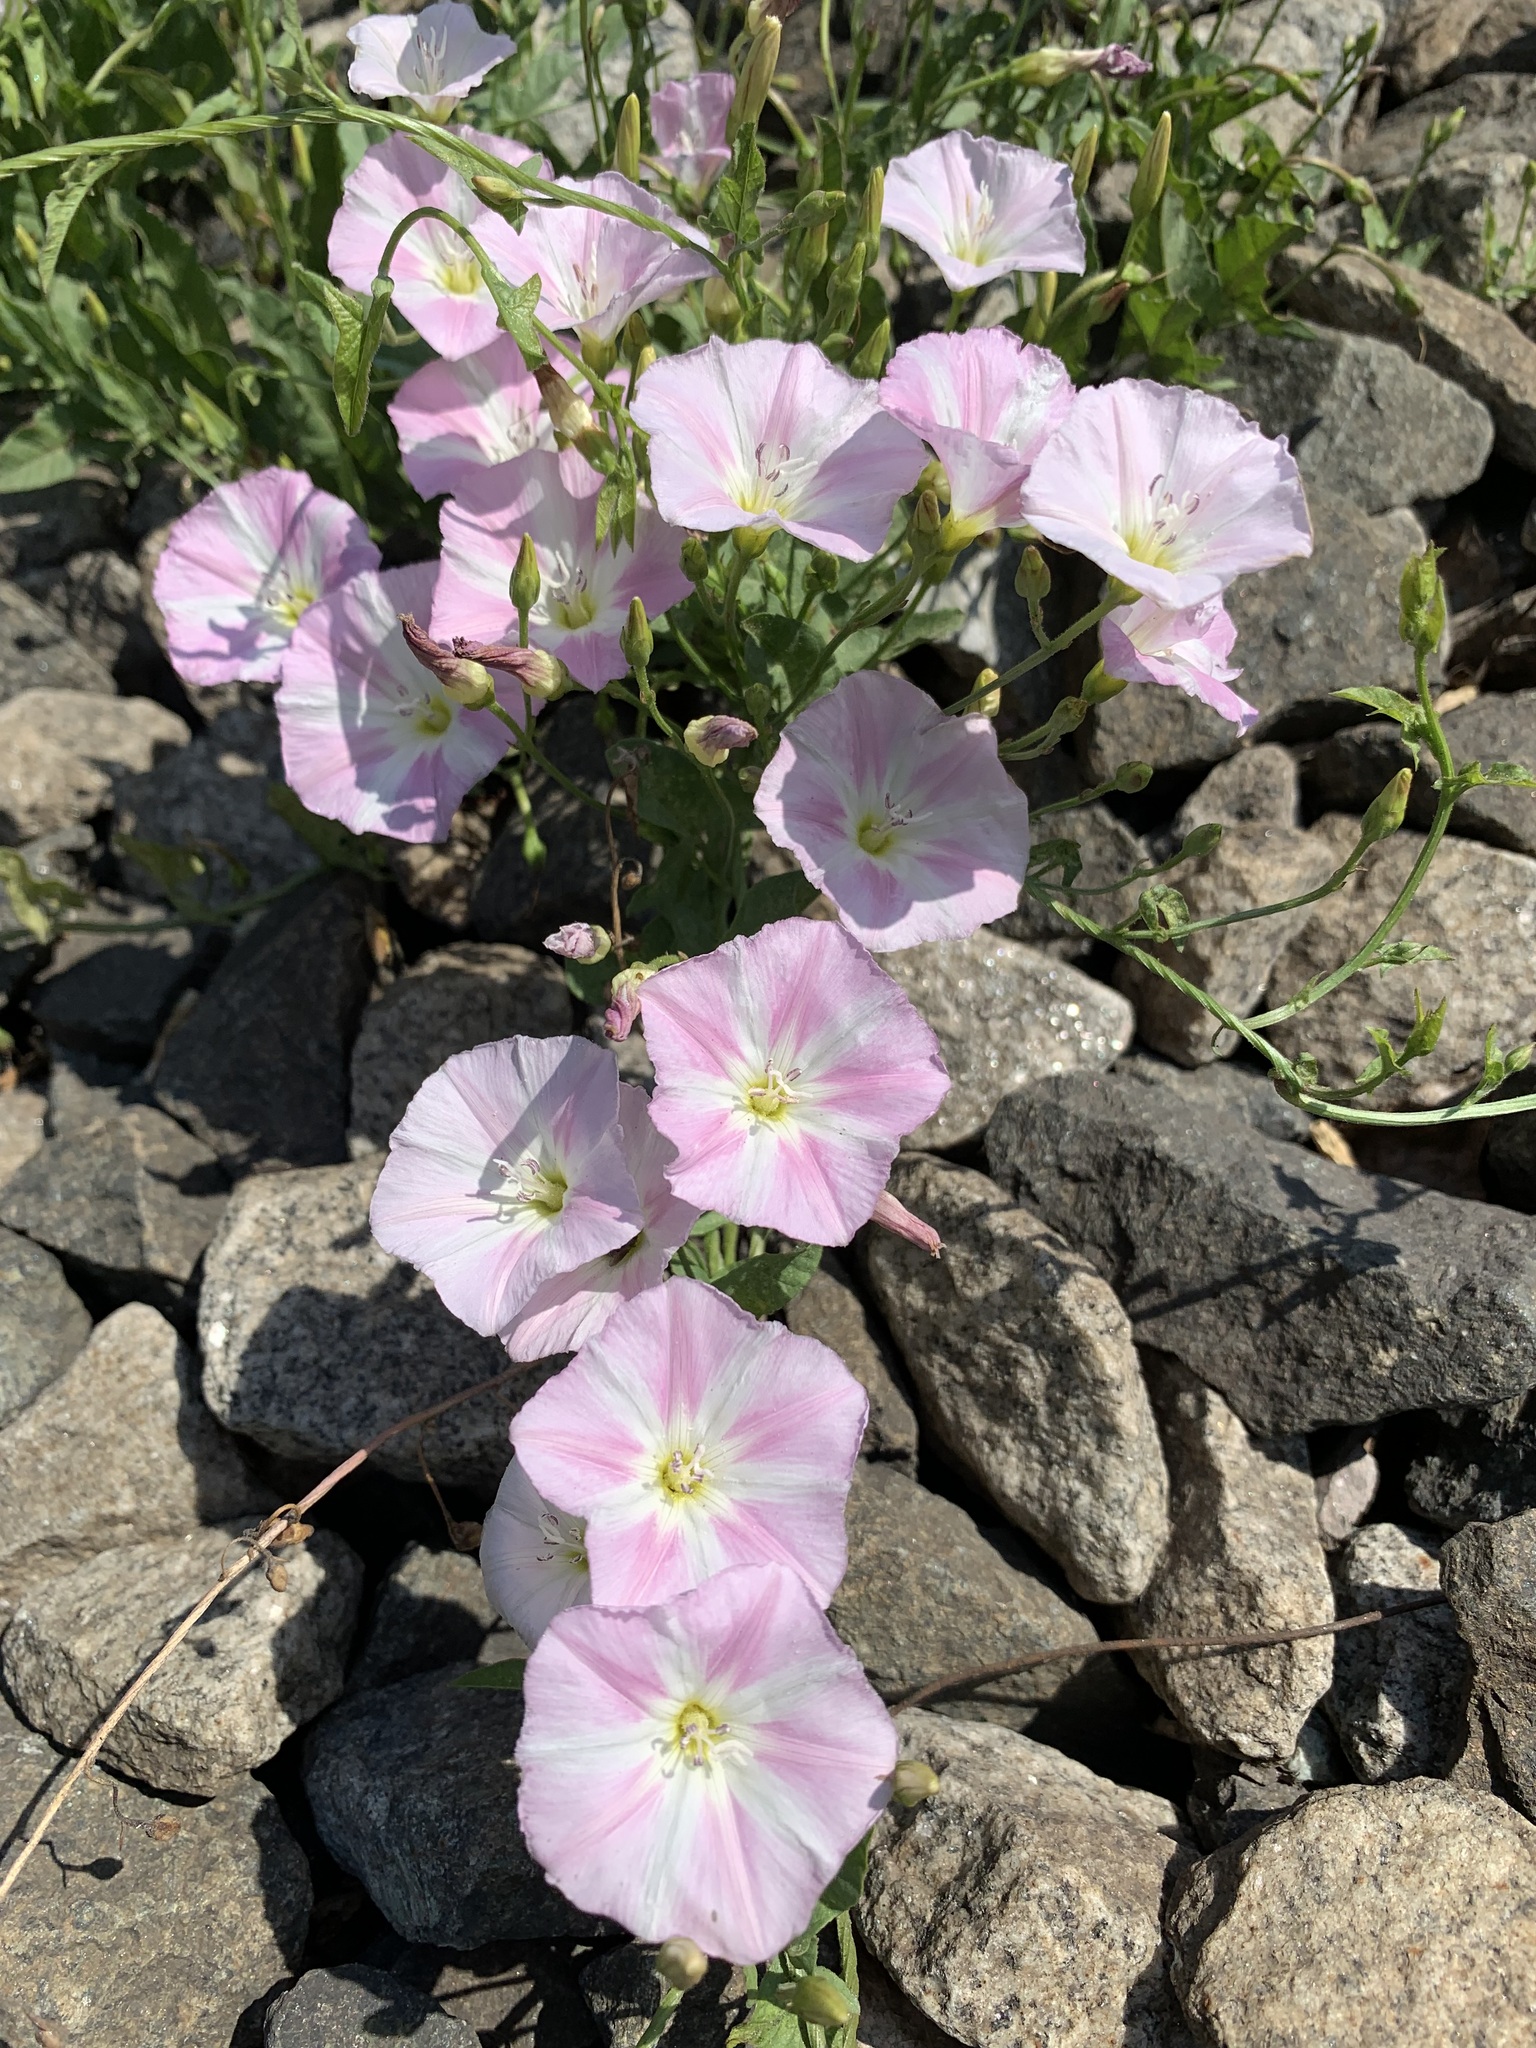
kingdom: Plantae
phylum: Tracheophyta
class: Magnoliopsida
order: Solanales
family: Convolvulaceae
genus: Convolvulus
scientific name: Convolvulus arvensis
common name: Field bindweed
